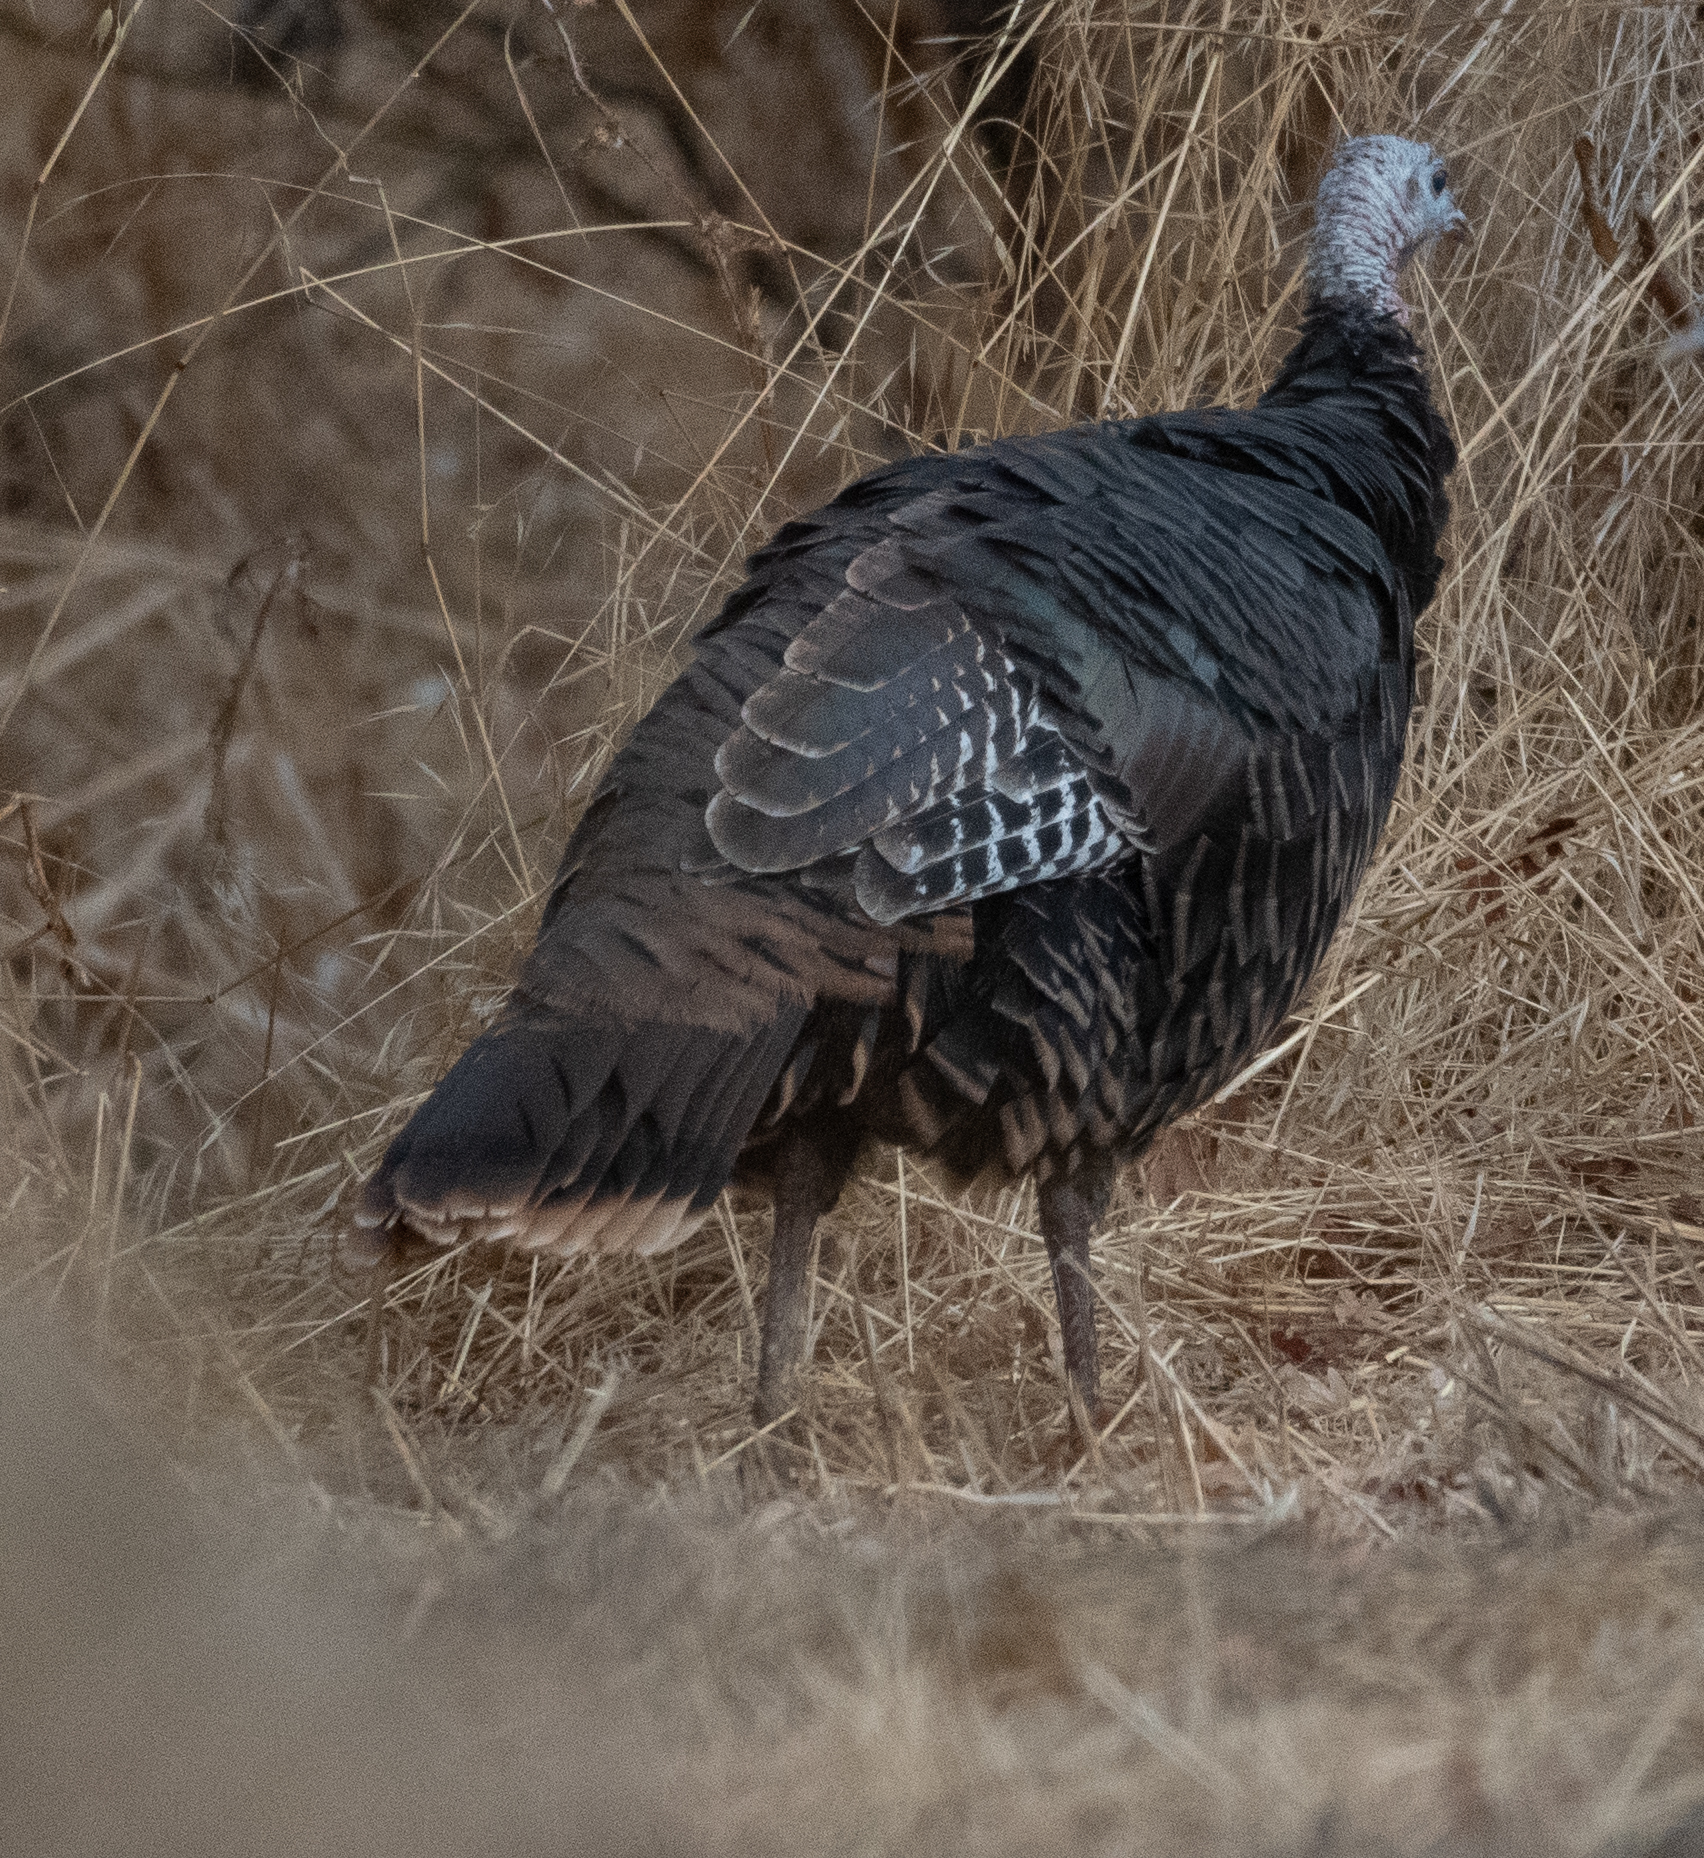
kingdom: Animalia
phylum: Chordata
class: Aves
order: Galliformes
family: Phasianidae
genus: Meleagris
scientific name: Meleagris gallopavo
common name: Wild turkey
